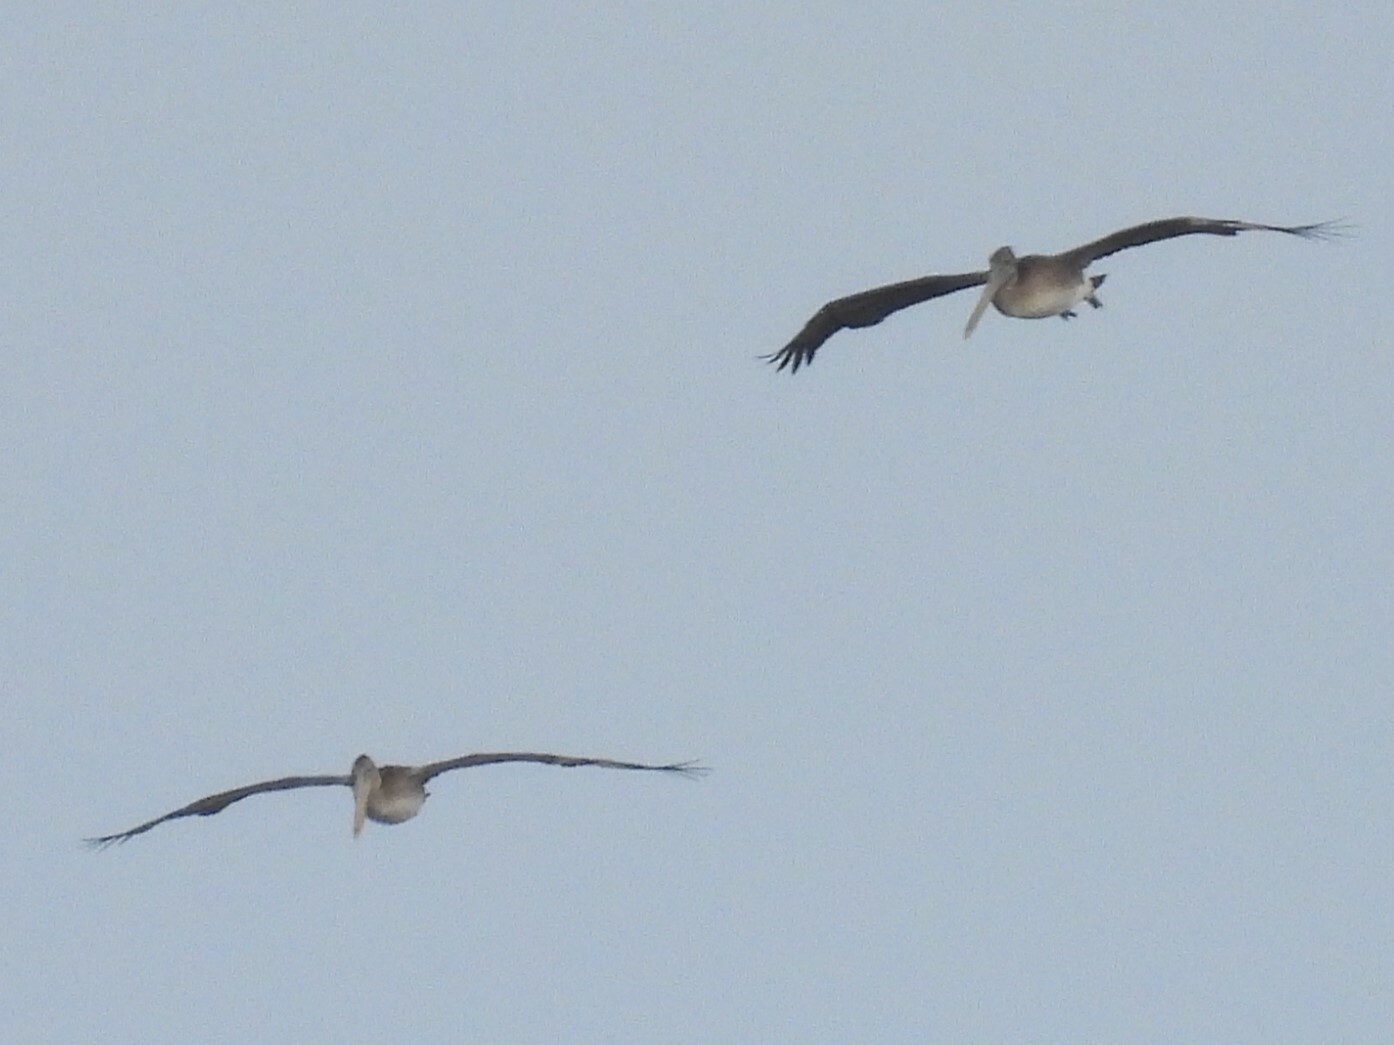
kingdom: Animalia
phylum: Chordata
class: Aves
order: Pelecaniformes
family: Pelecanidae
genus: Pelecanus
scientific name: Pelecanus occidentalis
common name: Brown pelican
